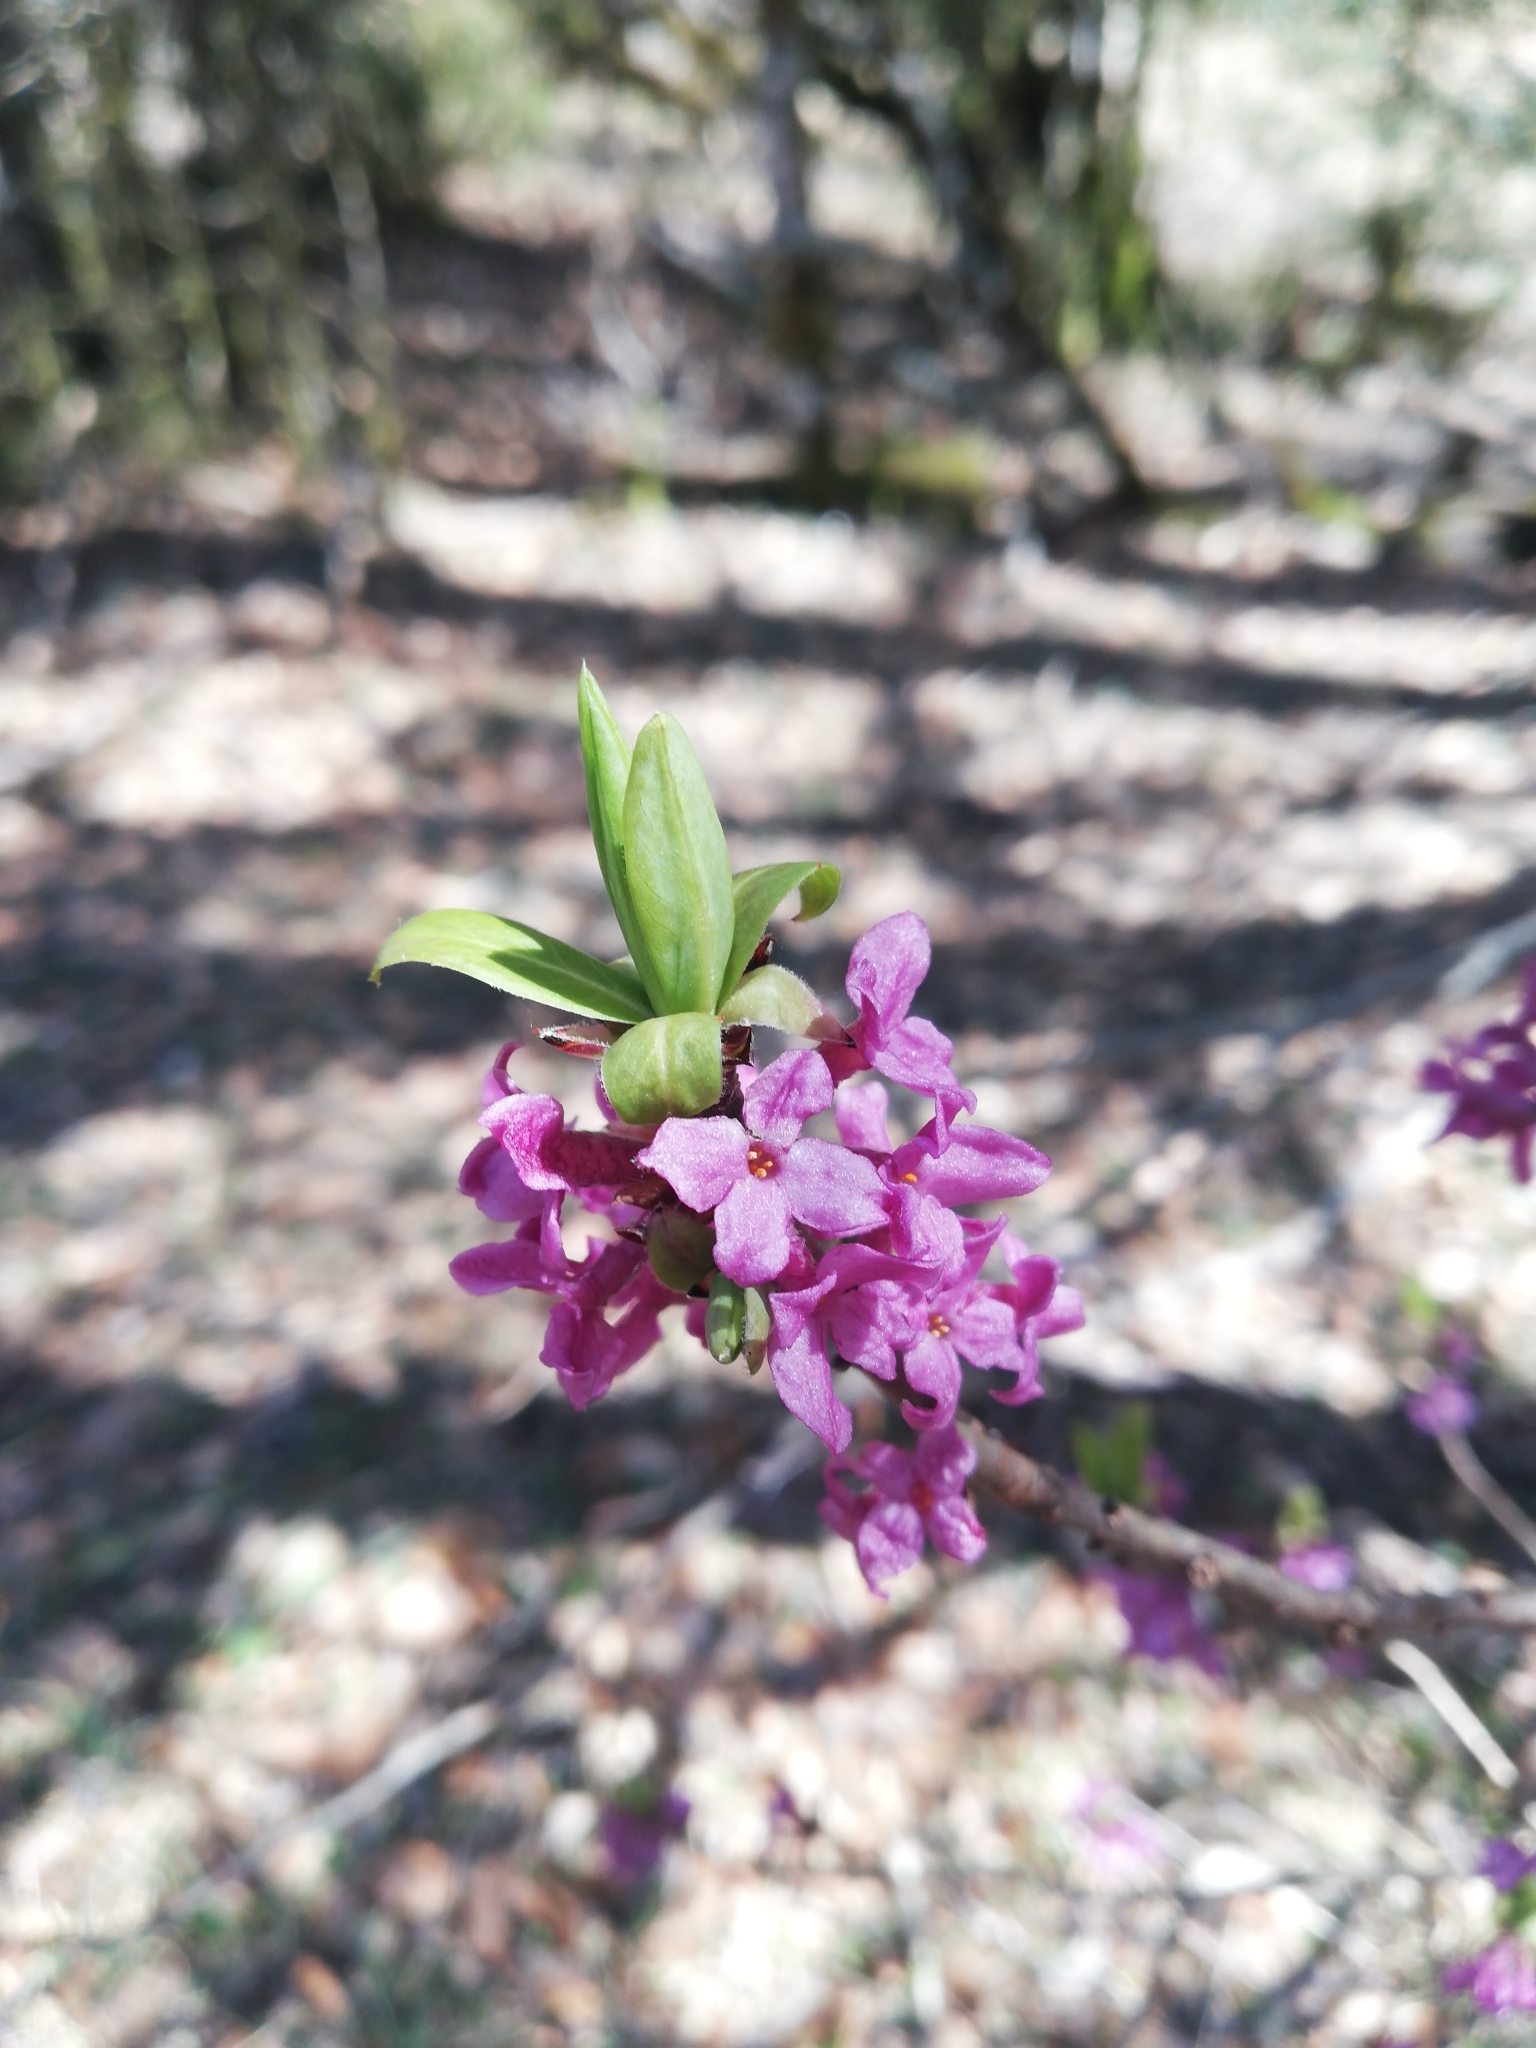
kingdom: Plantae
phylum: Tracheophyta
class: Magnoliopsida
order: Malvales
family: Thymelaeaceae
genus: Daphne
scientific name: Daphne mezereum
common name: Mezereon
